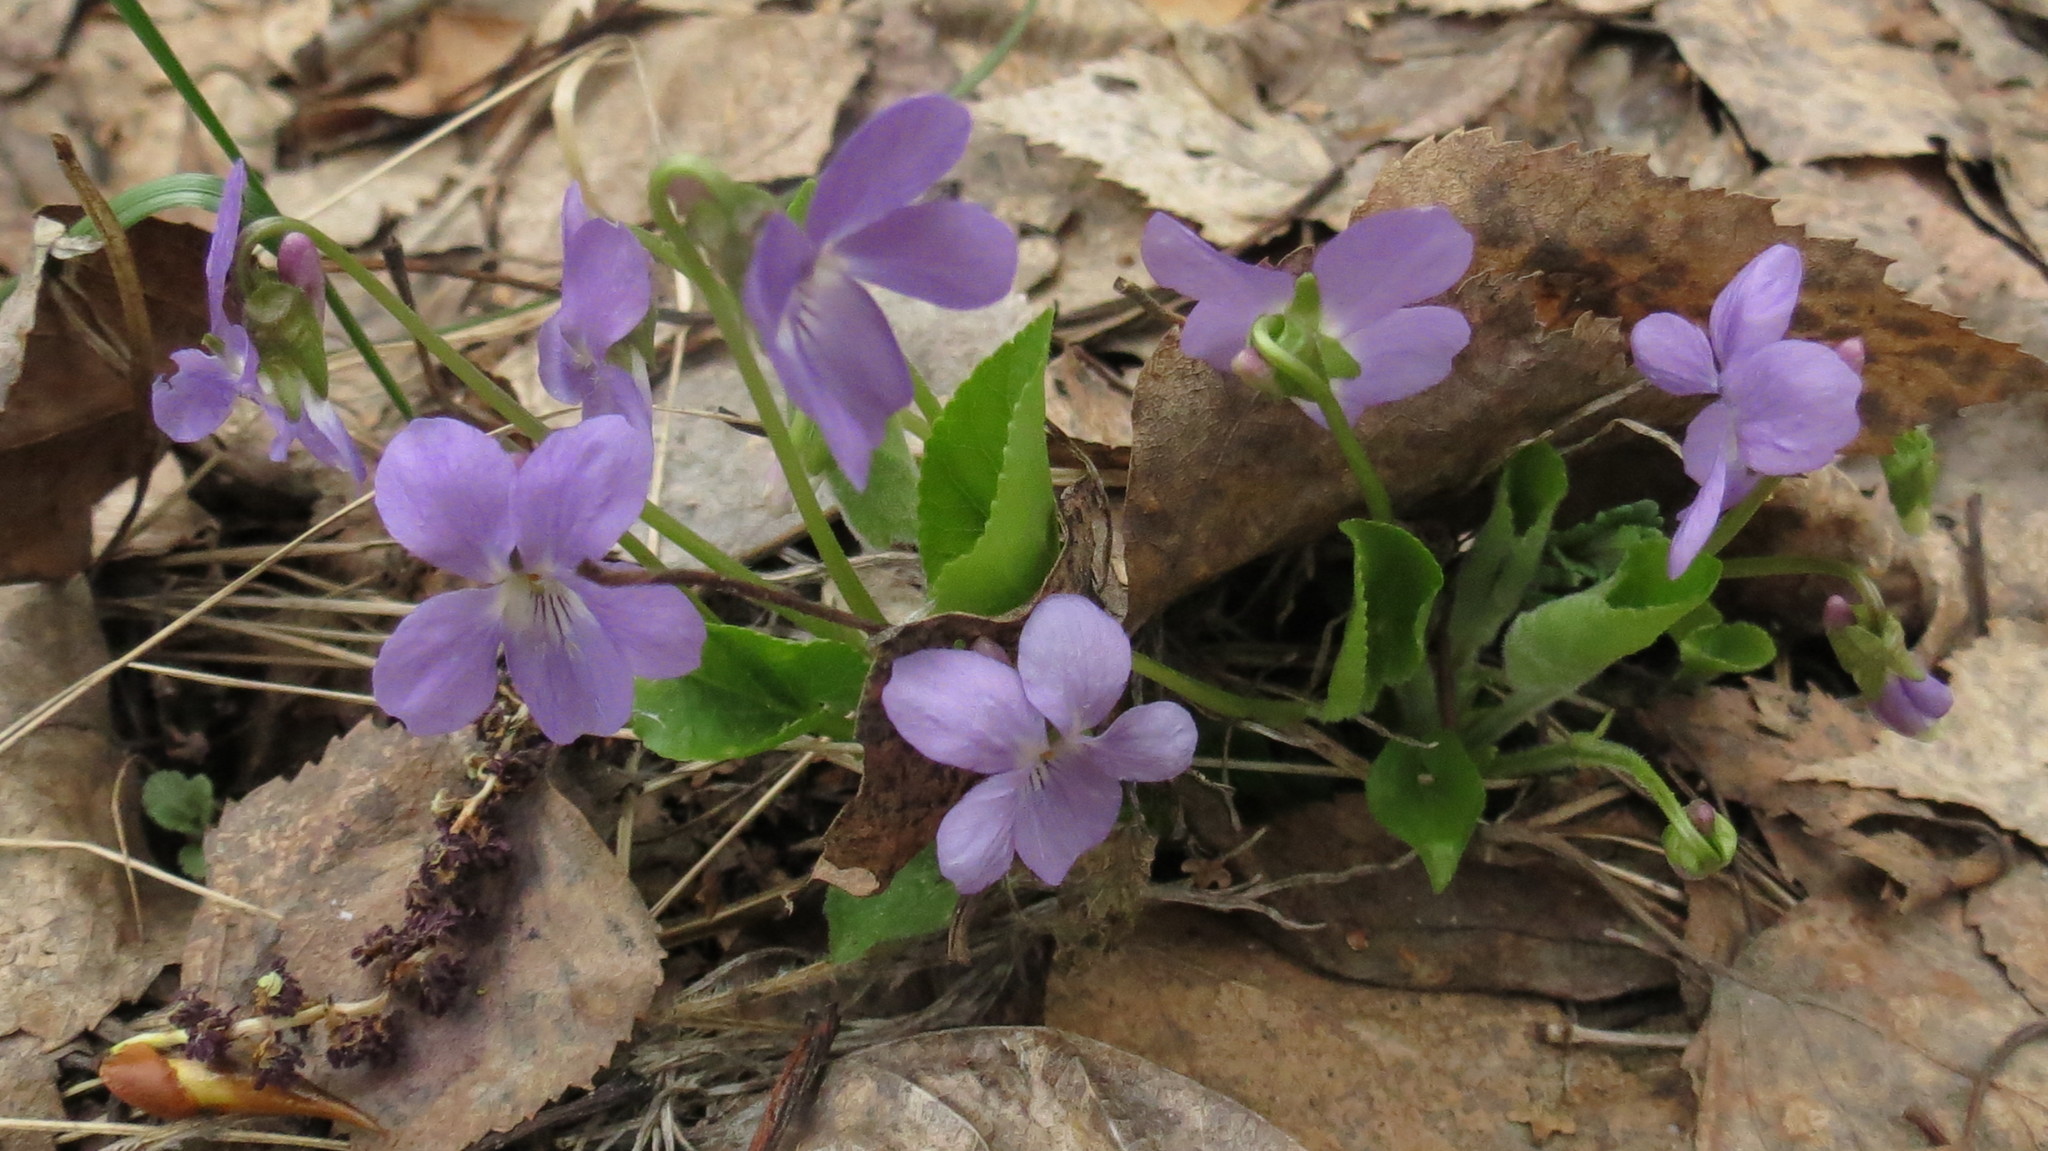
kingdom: Plantae
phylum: Tracheophyta
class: Magnoliopsida
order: Malpighiales
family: Violaceae
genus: Viola
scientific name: Viola hirta
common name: Hairy violet
